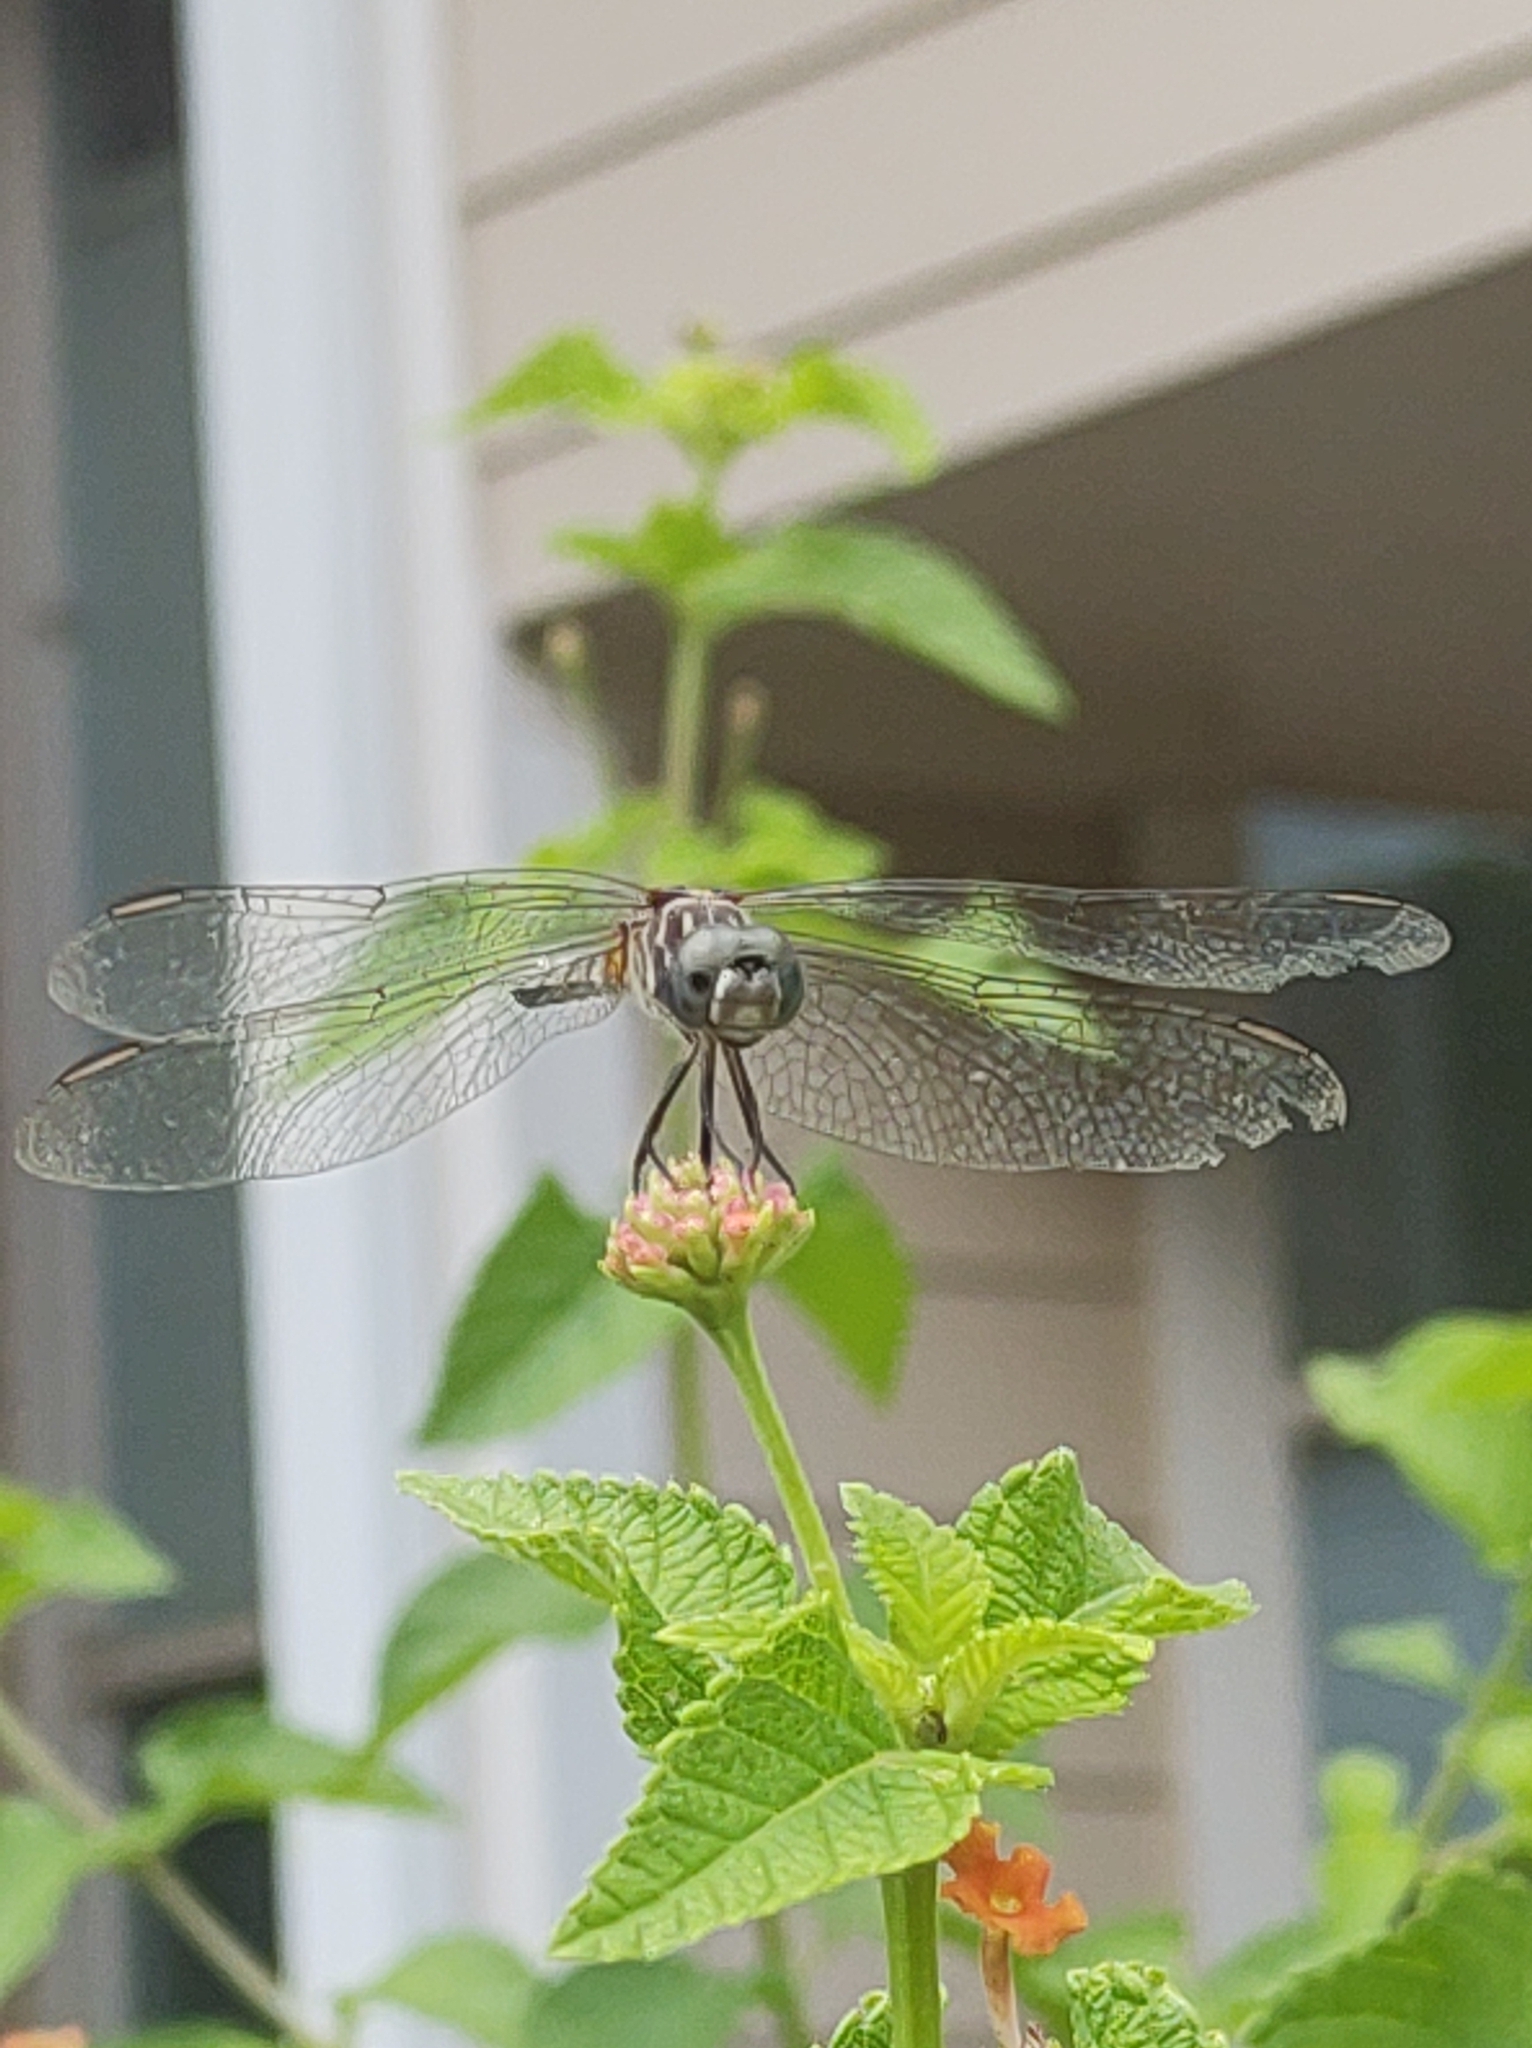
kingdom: Animalia
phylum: Arthropoda
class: Insecta
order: Odonata
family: Libellulidae
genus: Pachydiplax
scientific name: Pachydiplax longipennis
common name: Blue dasher
